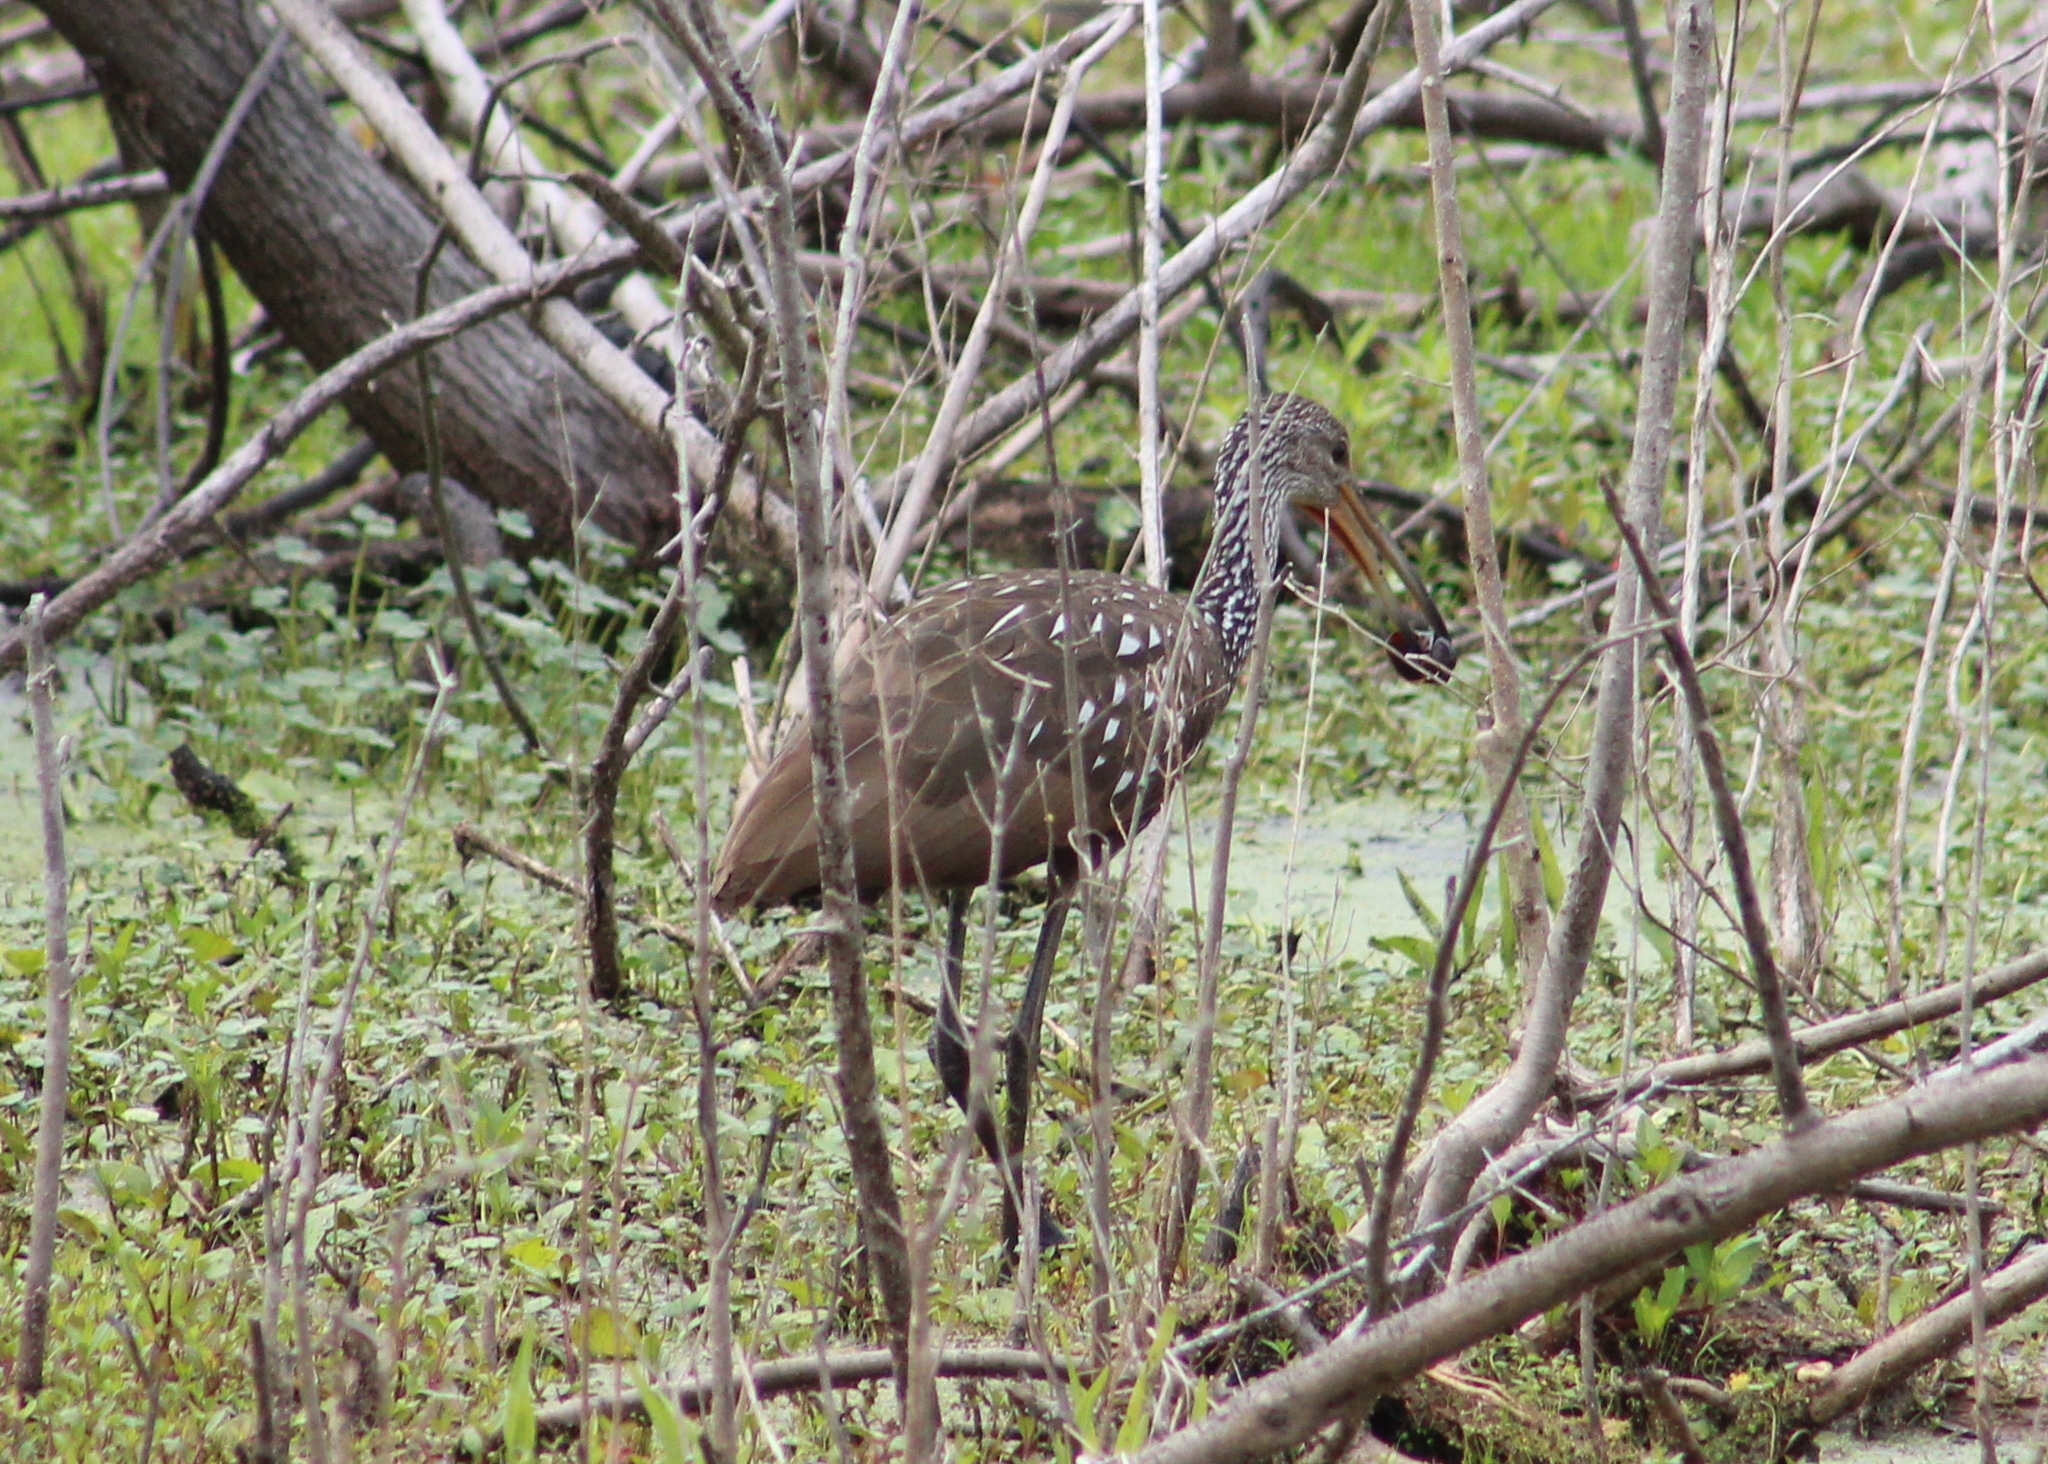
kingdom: Animalia
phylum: Chordata
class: Aves
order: Gruiformes
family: Aramidae
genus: Aramus
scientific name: Aramus guarauna
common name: Limpkin
